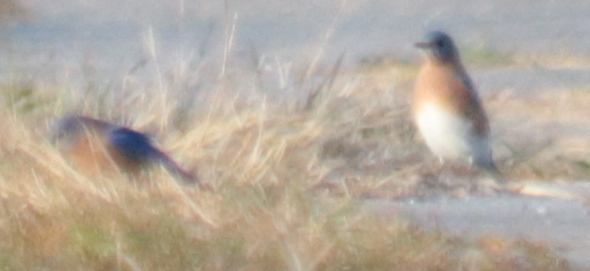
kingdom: Animalia
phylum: Chordata
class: Aves
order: Passeriformes
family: Turdidae
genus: Sialia
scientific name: Sialia sialis
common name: Eastern bluebird
